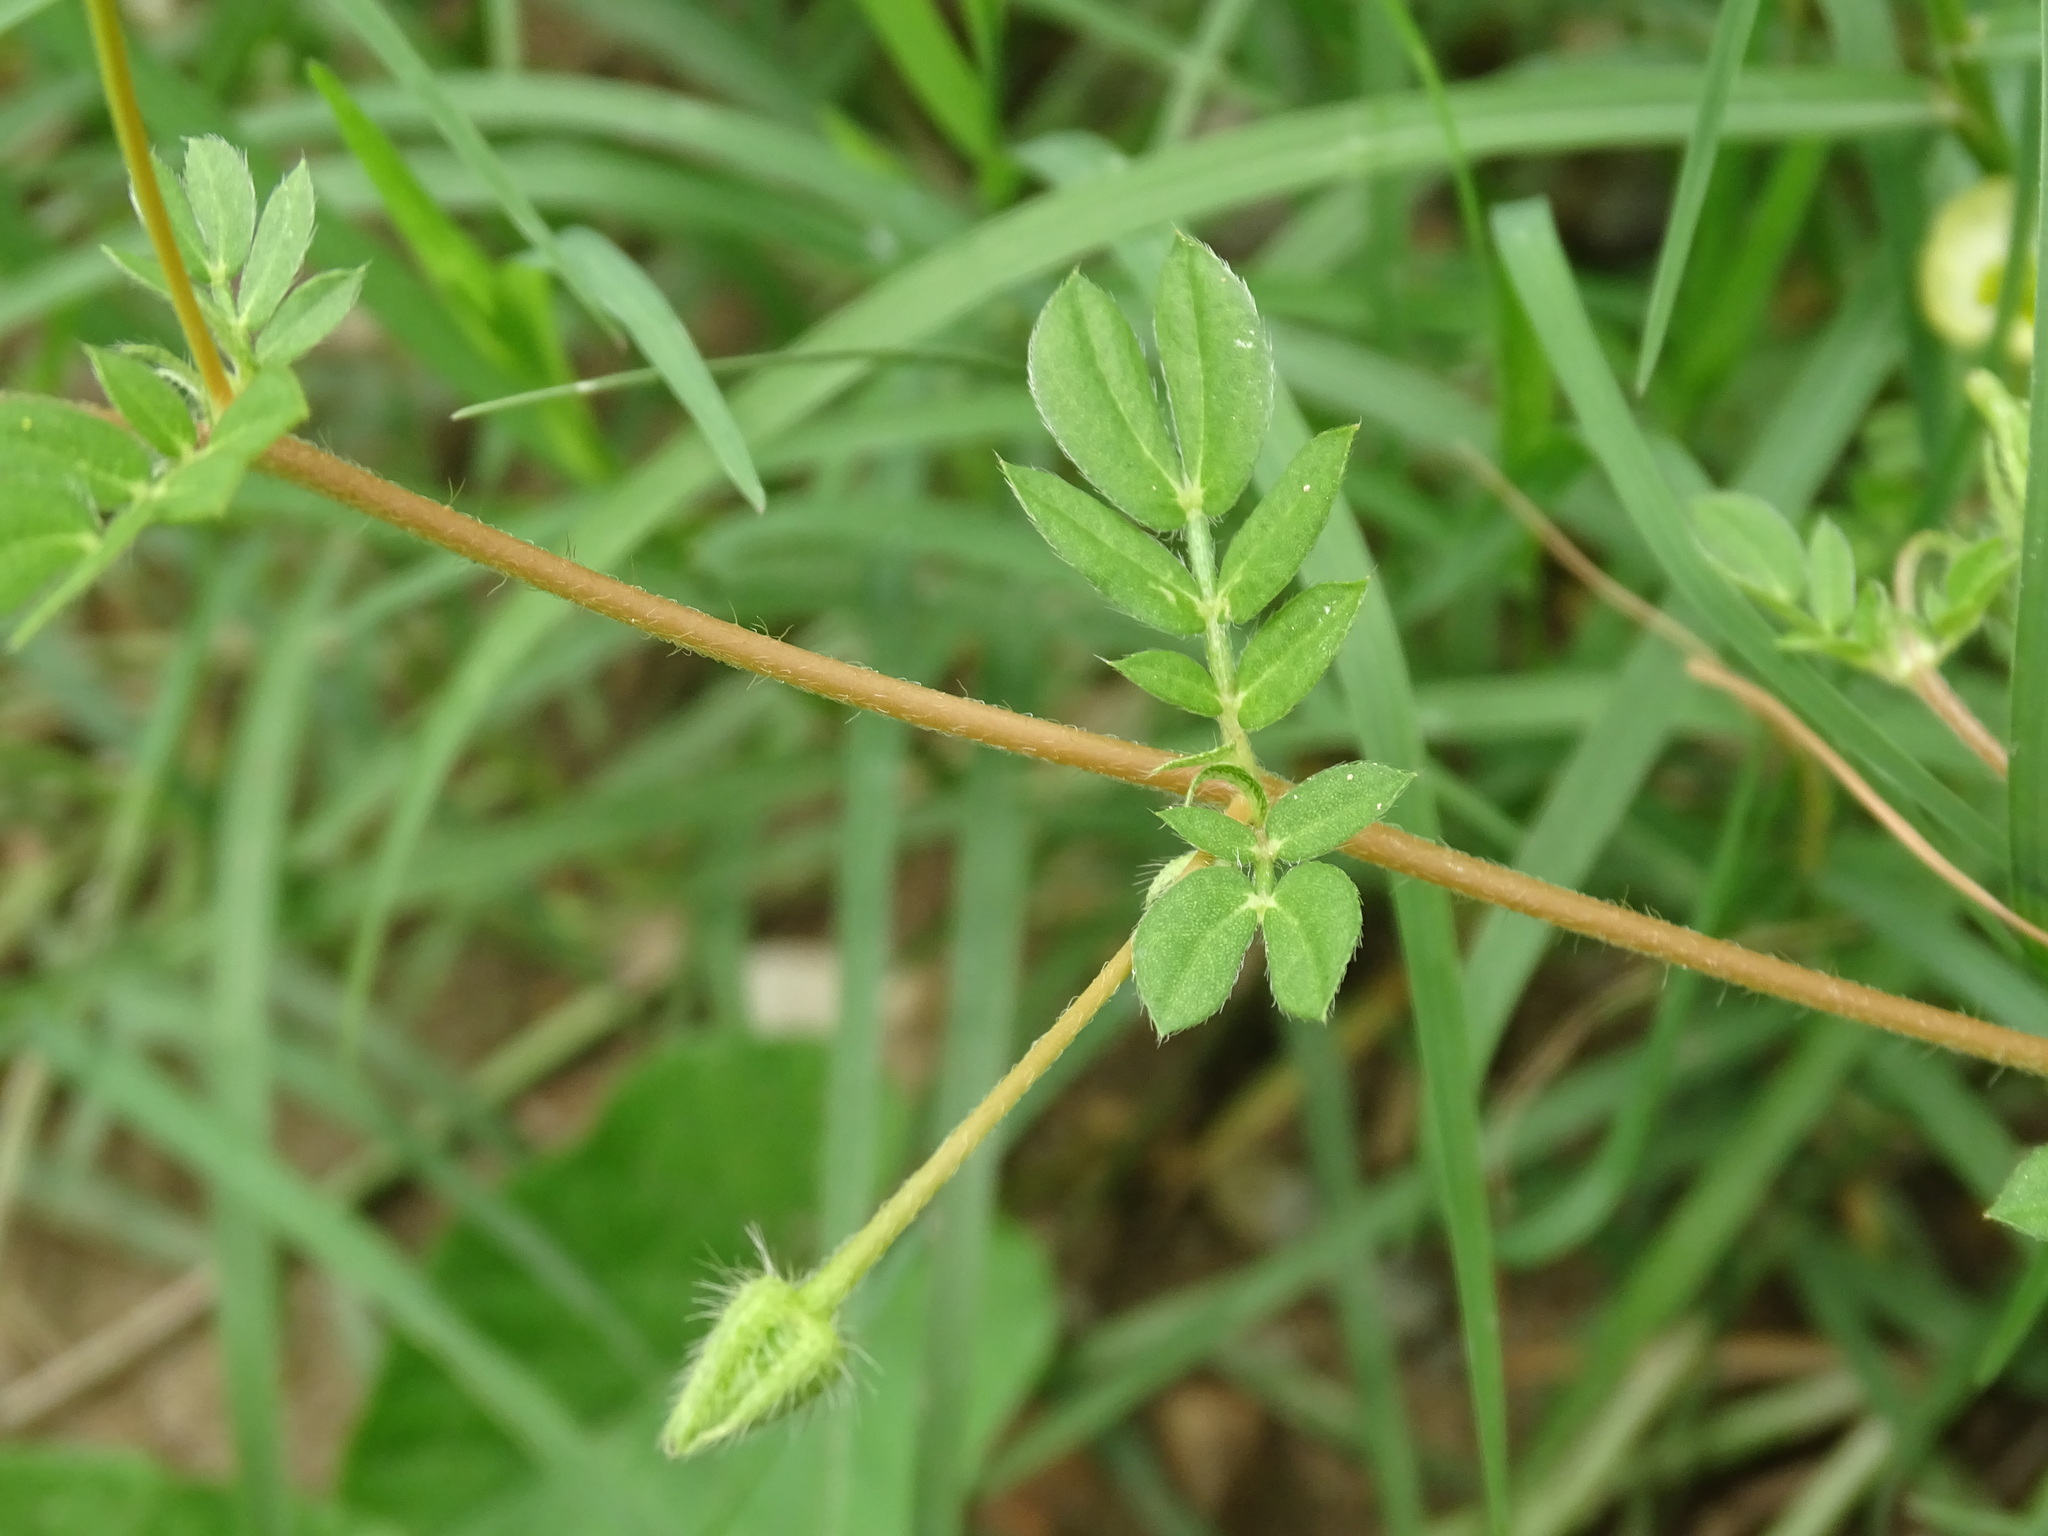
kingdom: Plantae
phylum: Tracheophyta
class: Magnoliopsida
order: Zygophyllales
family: Zygophyllaceae
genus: Kallstroemia
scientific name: Kallstroemia maxima
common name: Big caltropa
